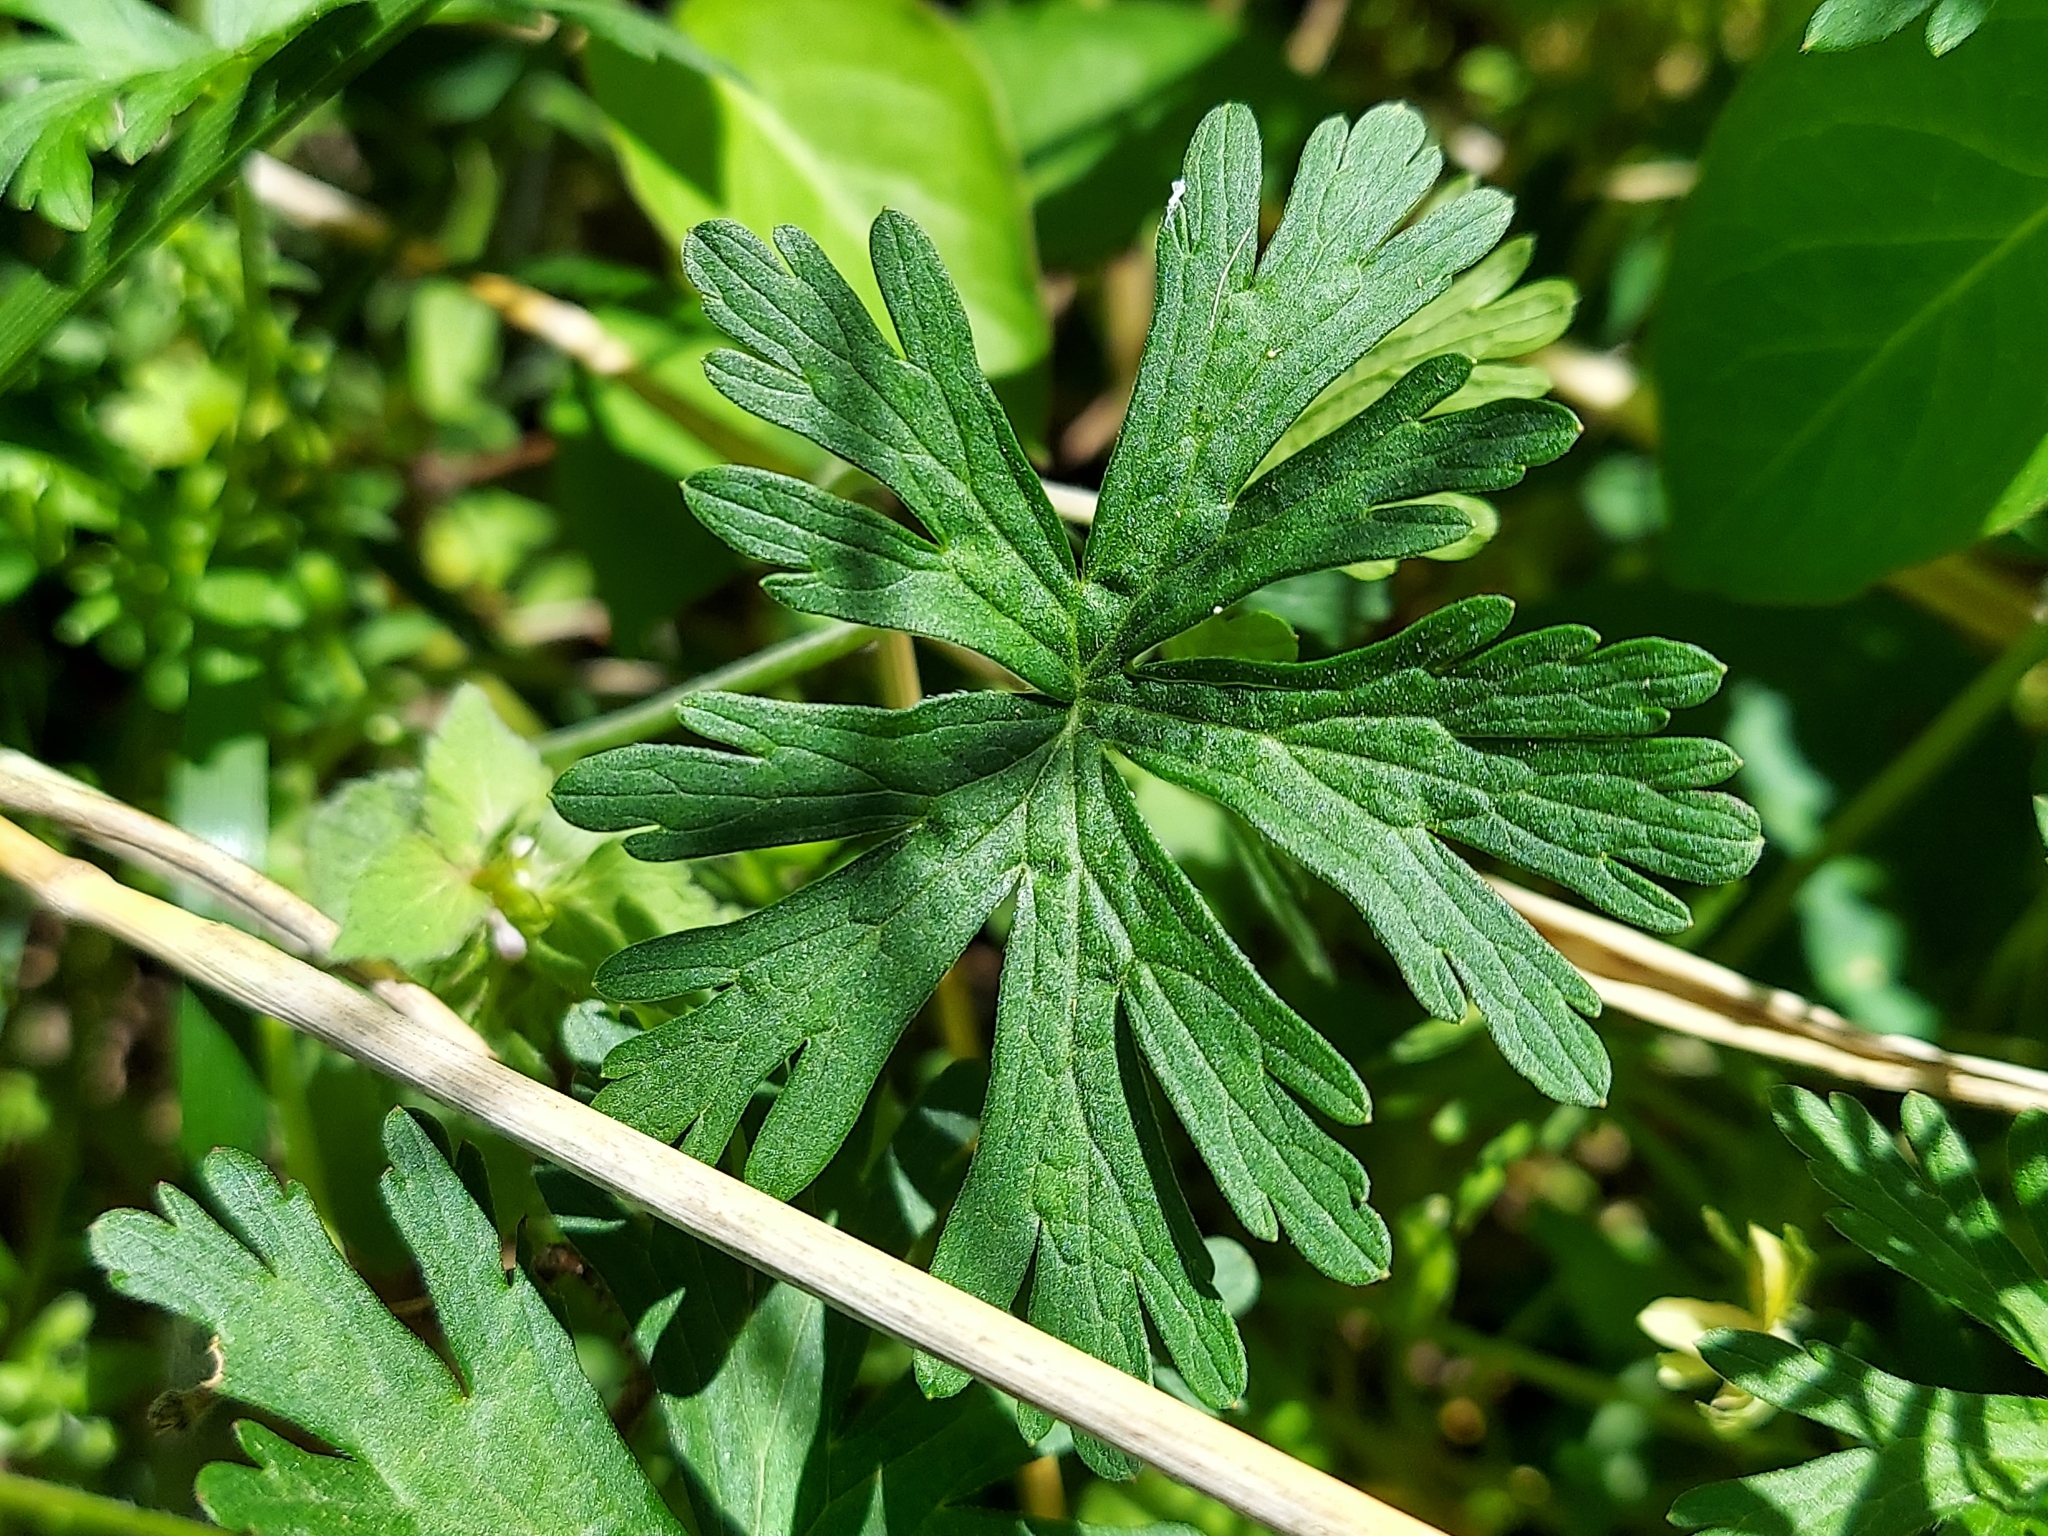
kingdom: Plantae
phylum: Tracheophyta
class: Magnoliopsida
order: Geraniales
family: Geraniaceae
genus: Geranium
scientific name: Geranium carolinianum
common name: Carolina crane's-bill
